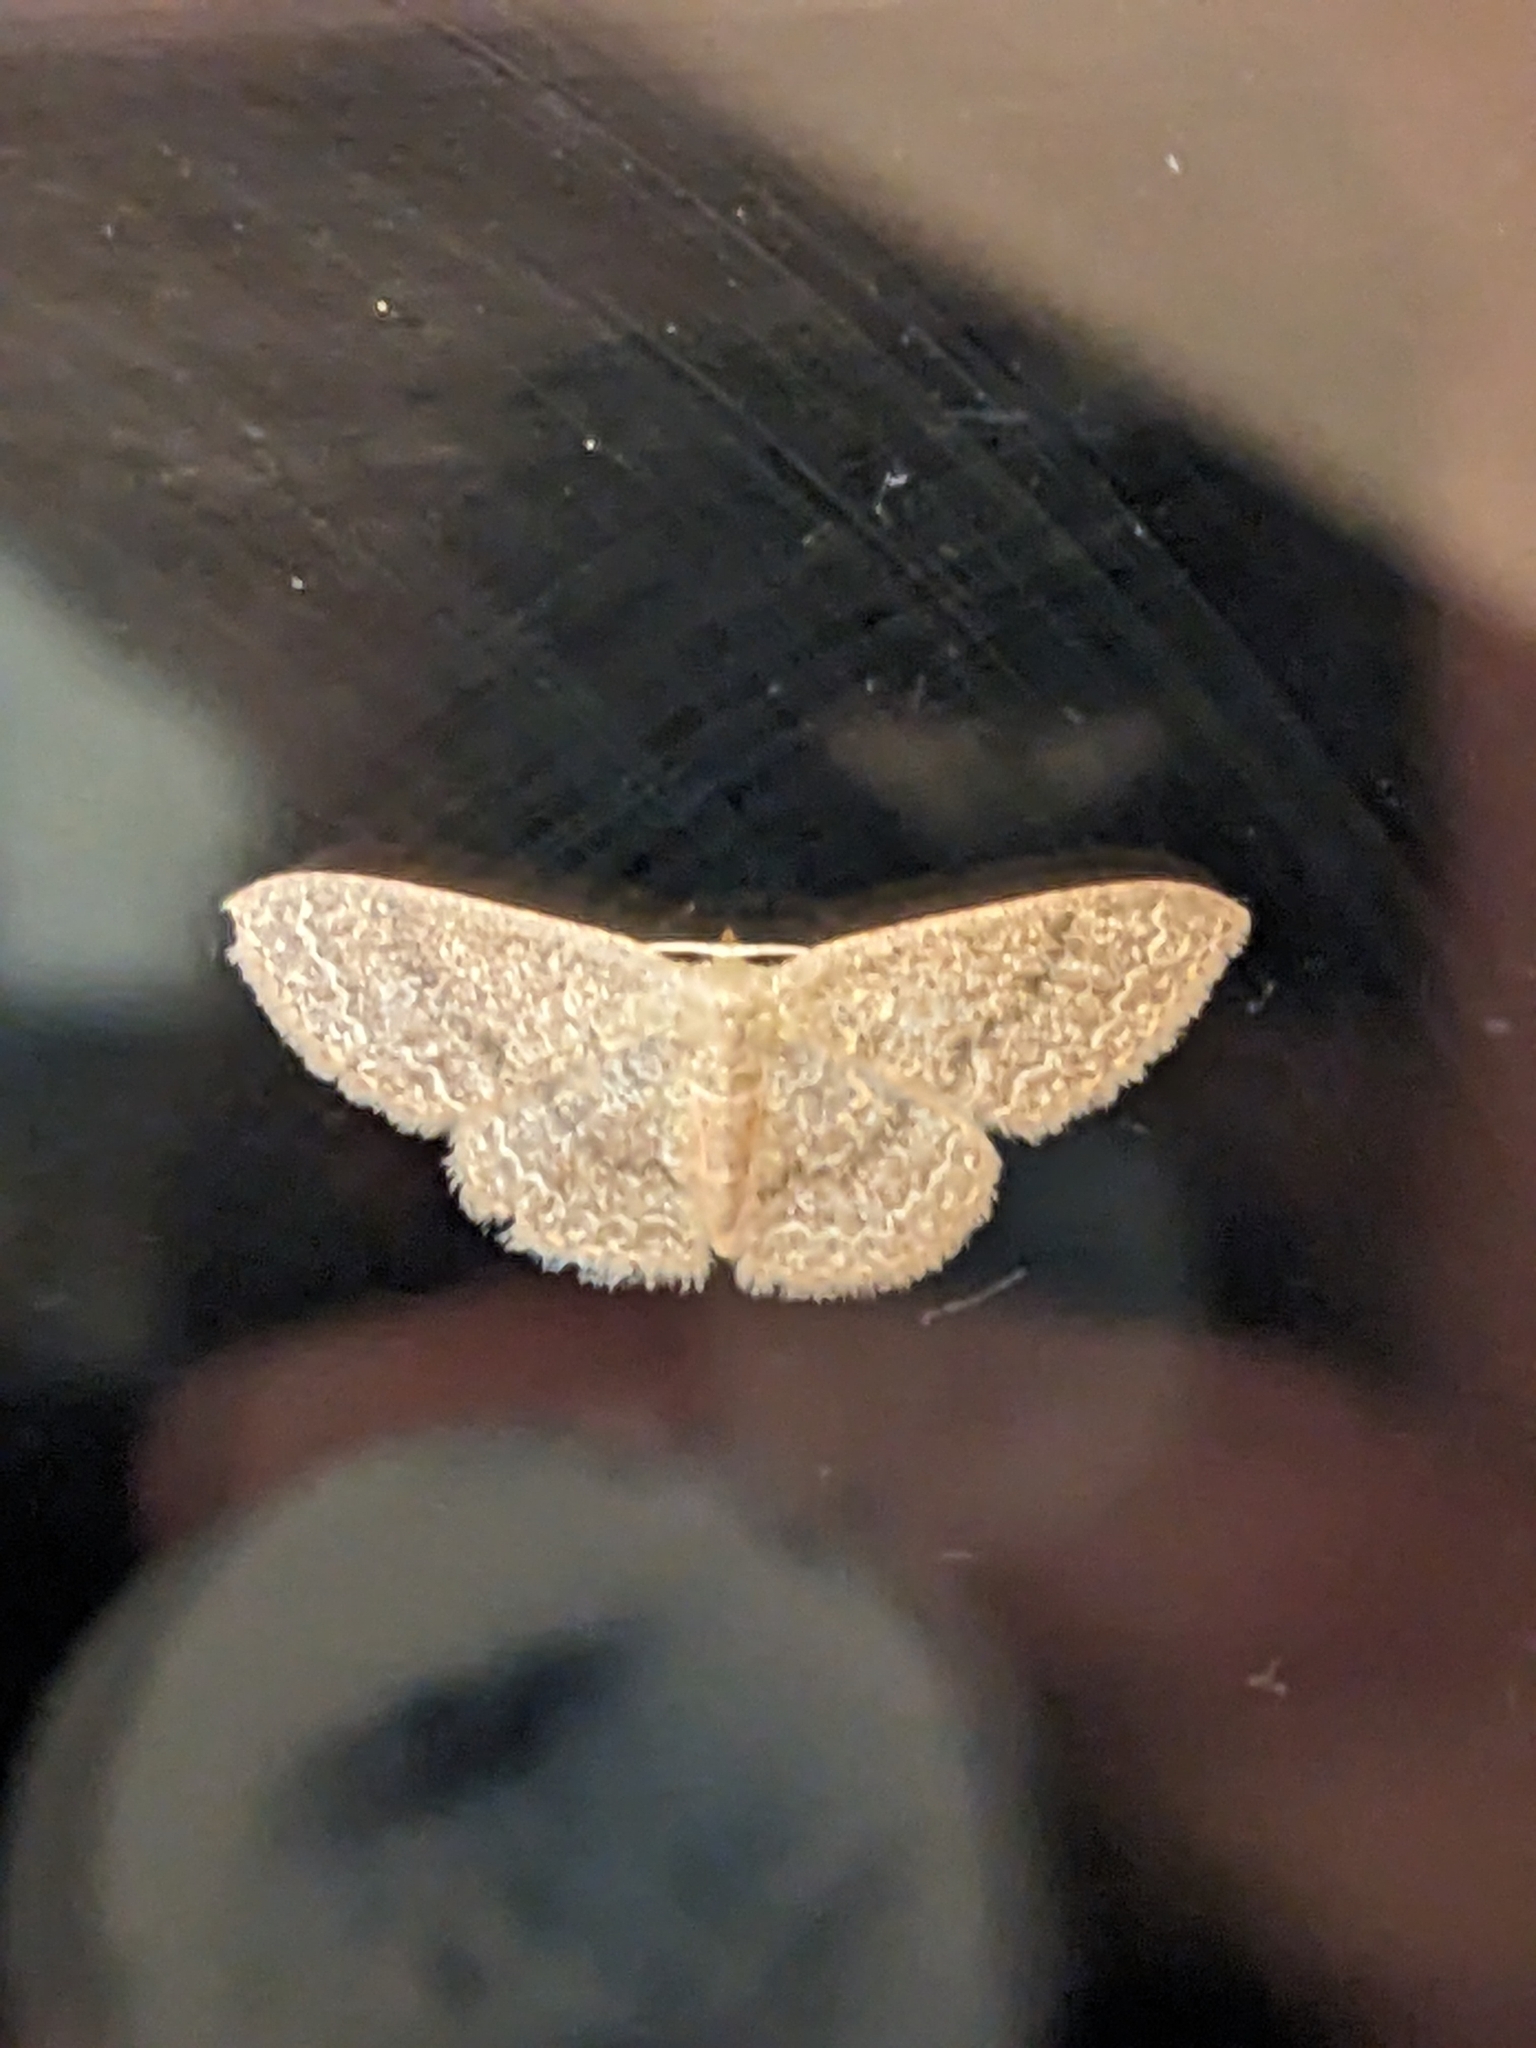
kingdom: Animalia
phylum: Arthropoda
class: Insecta
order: Lepidoptera
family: Geometridae
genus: Pleuroprucha
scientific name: Pleuroprucha insulsaria
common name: Common tan wave
